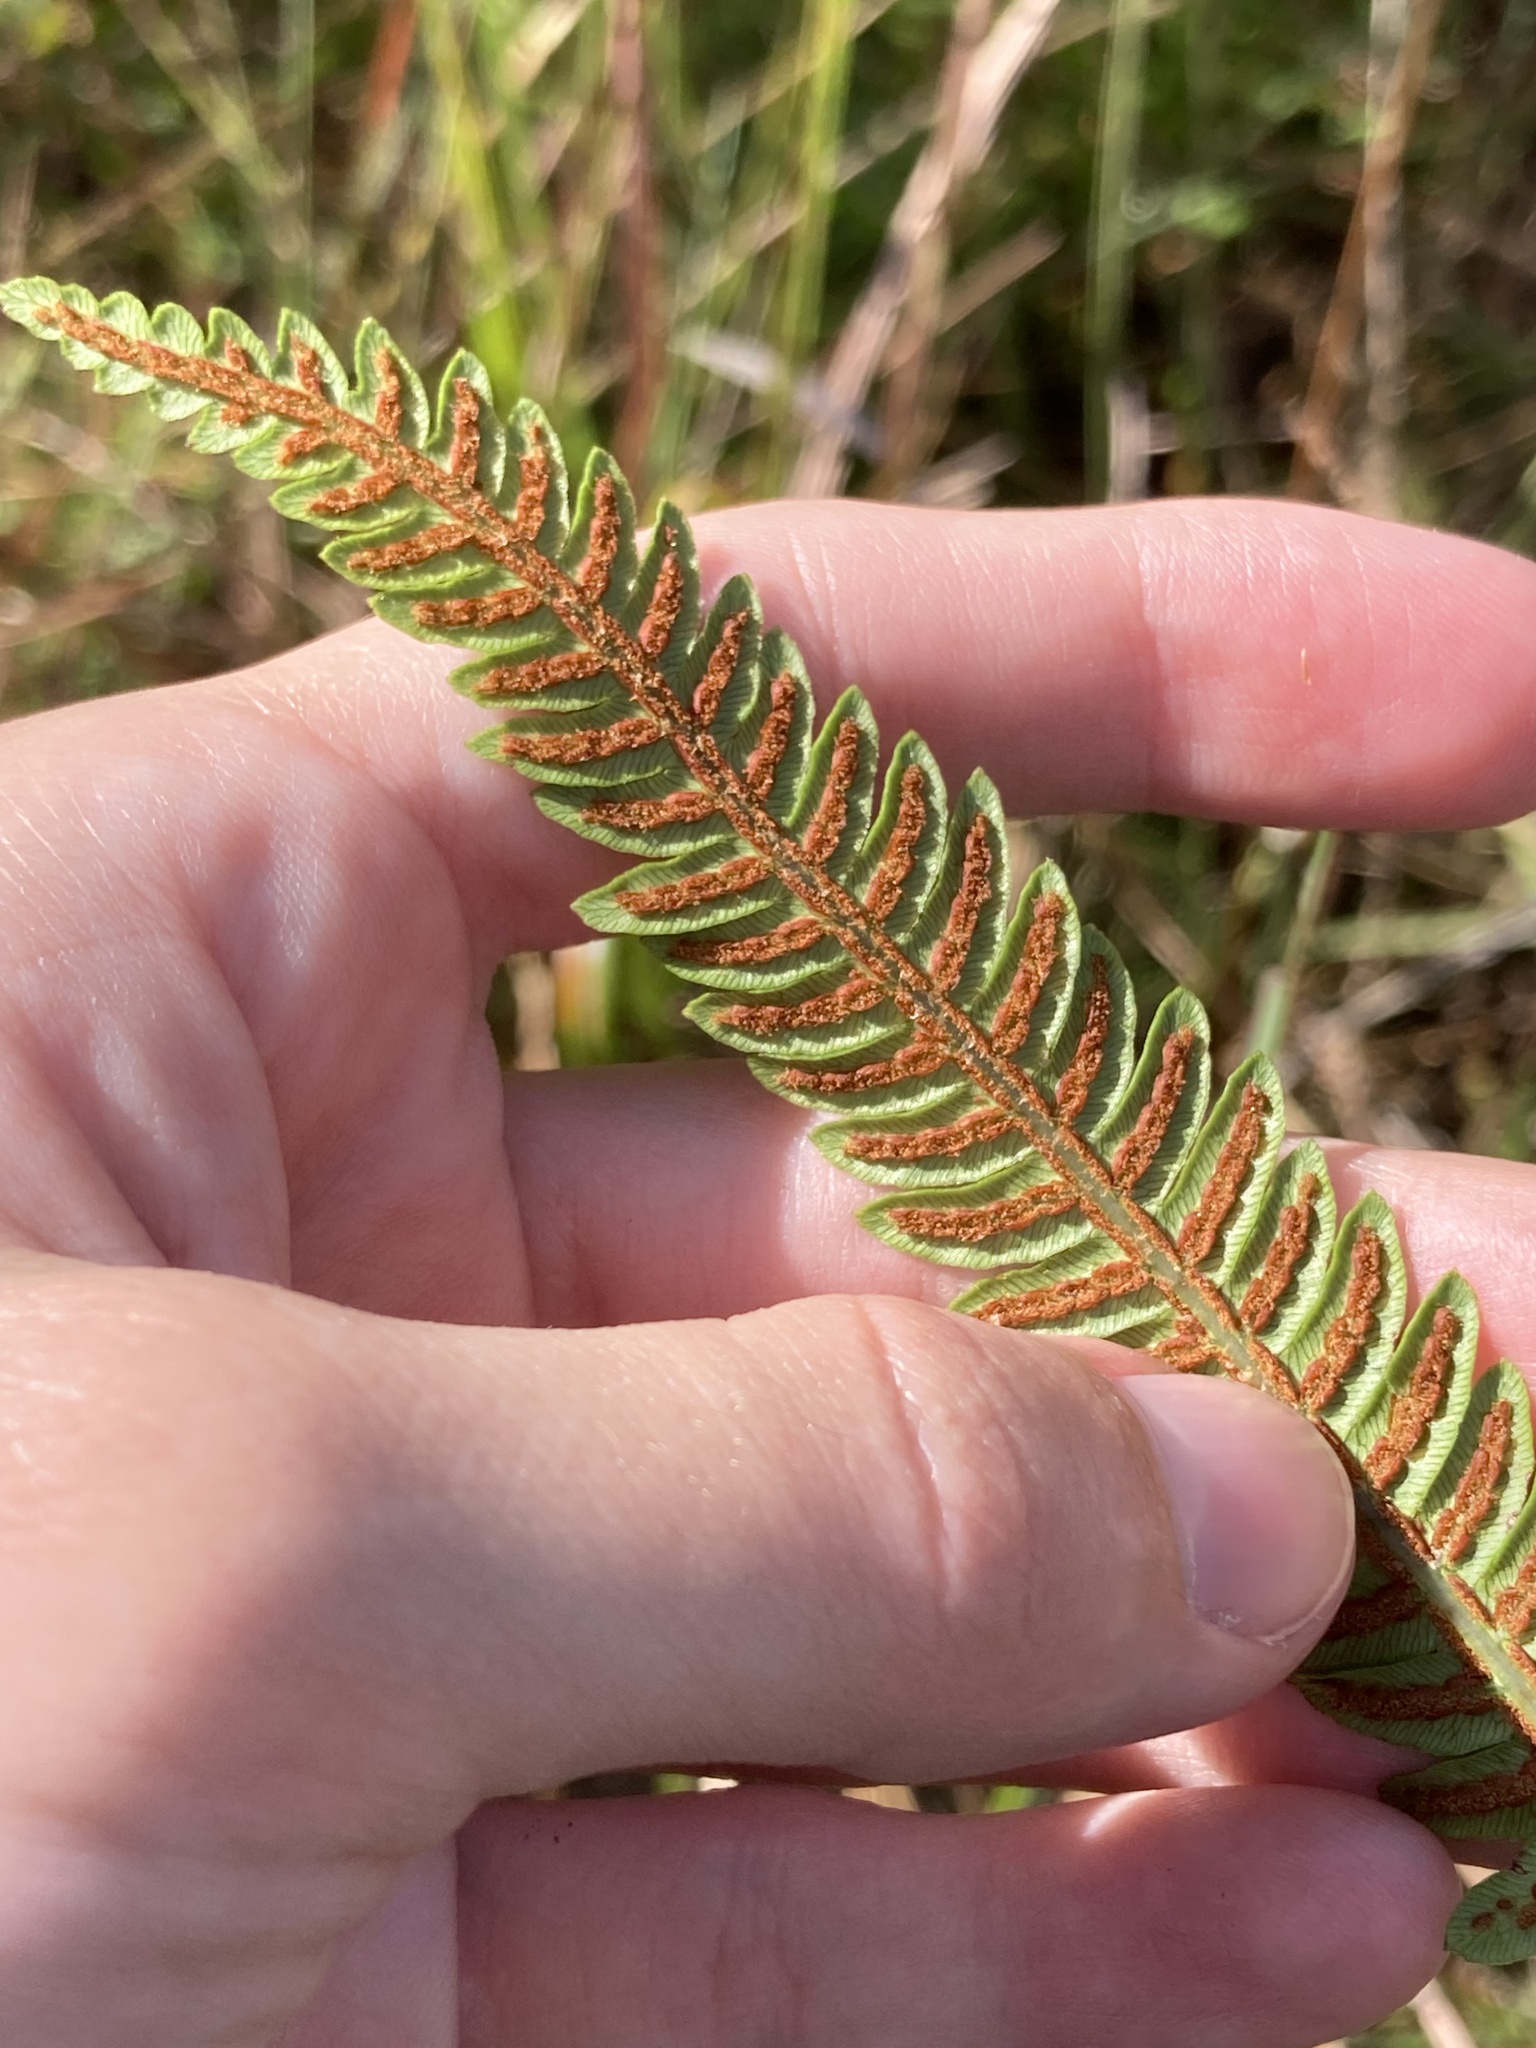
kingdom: Plantae
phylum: Tracheophyta
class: Polypodiopsida
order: Polypodiales
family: Blechnaceae
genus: Anchistea
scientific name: Anchistea virginica
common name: Virginia chain fern
